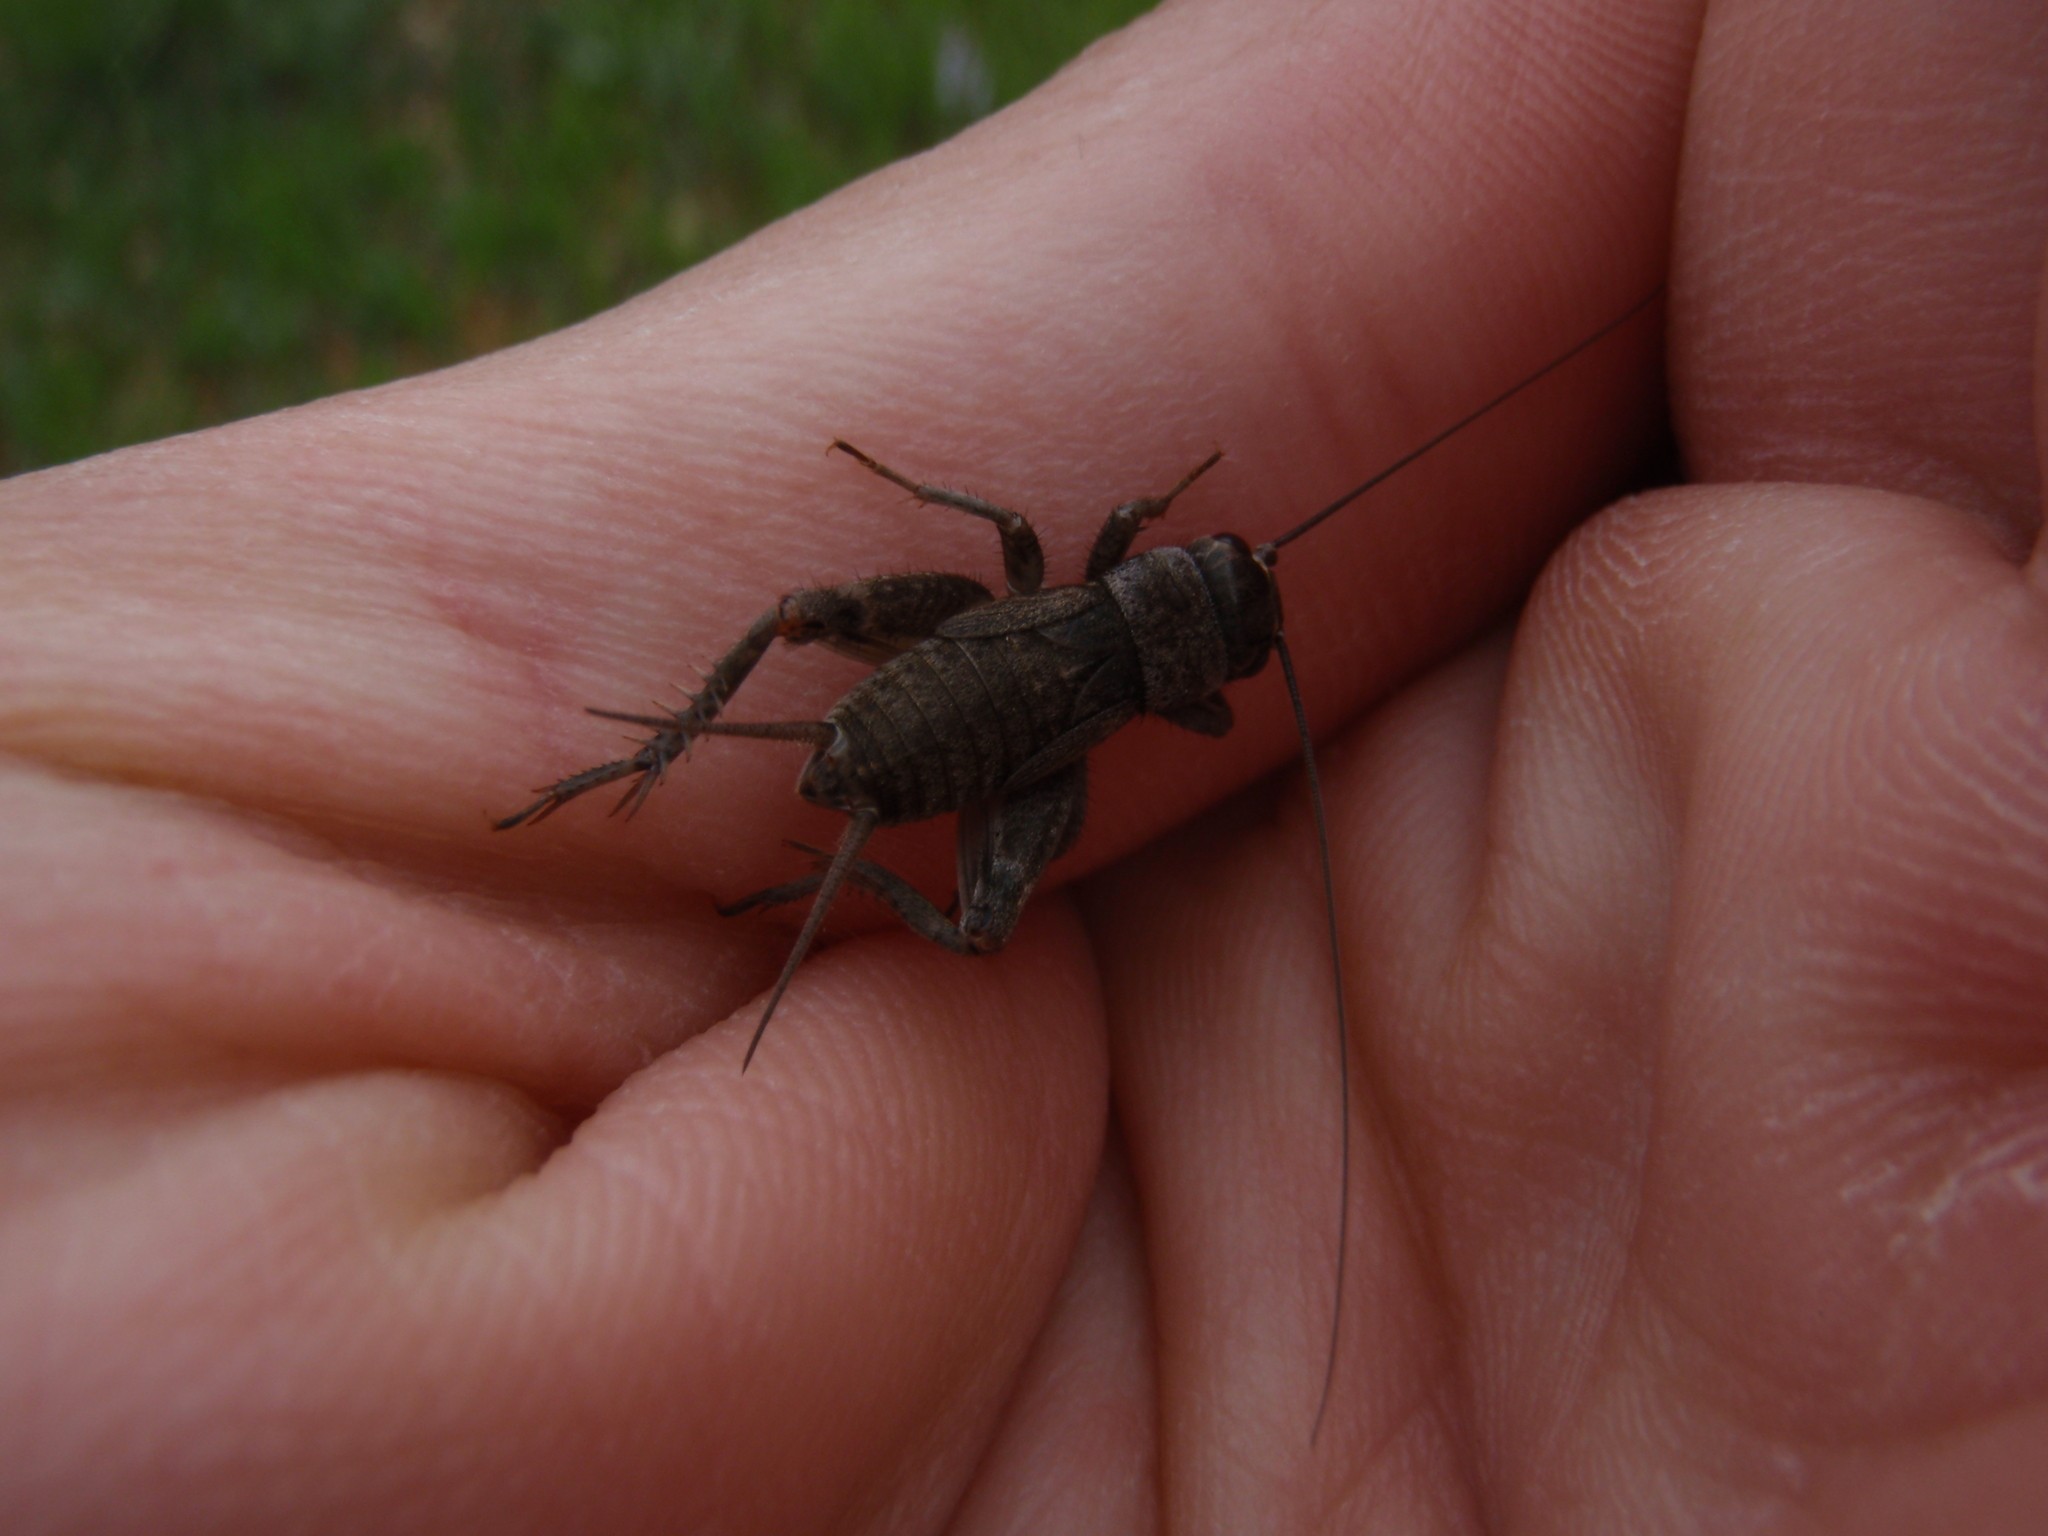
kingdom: Animalia
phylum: Arthropoda
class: Insecta
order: Orthoptera
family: Gryllidae
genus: Eumodicogryllus
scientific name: Eumodicogryllus bordigalensis
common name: Bordeaux cricket
